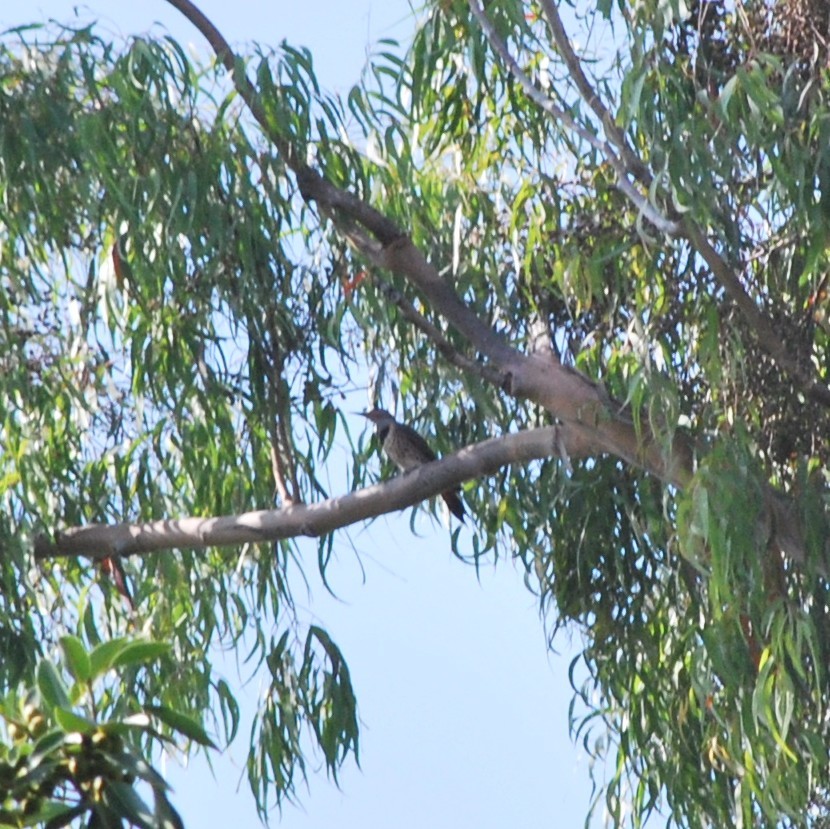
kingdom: Animalia
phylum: Chordata
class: Aves
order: Piciformes
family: Picidae
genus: Colaptes
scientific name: Colaptes auratus
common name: Northern flicker
